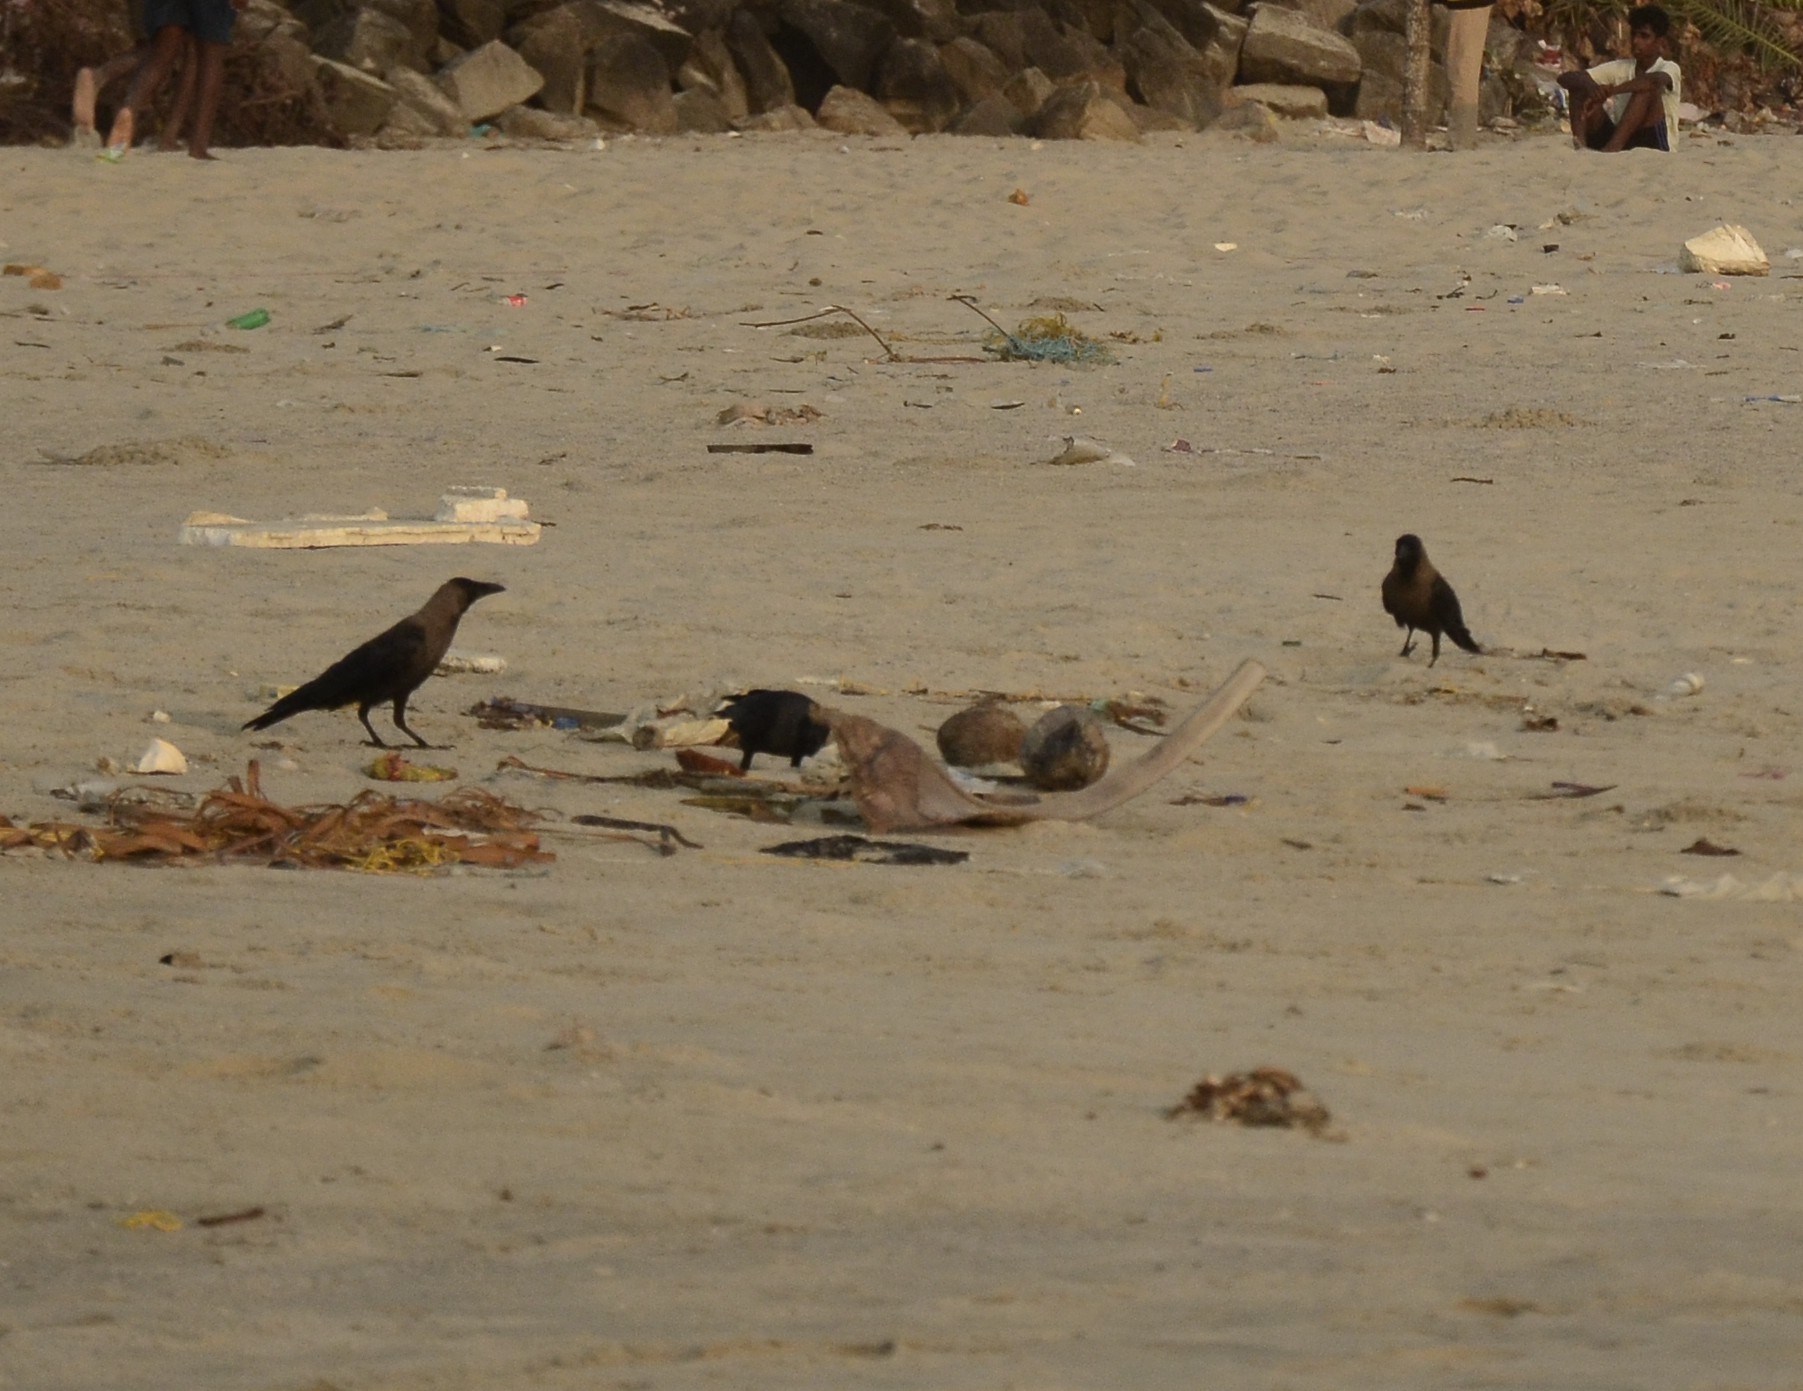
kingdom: Animalia
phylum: Chordata
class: Aves
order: Passeriformes
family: Corvidae
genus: Corvus
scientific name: Corvus splendens
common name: House crow
